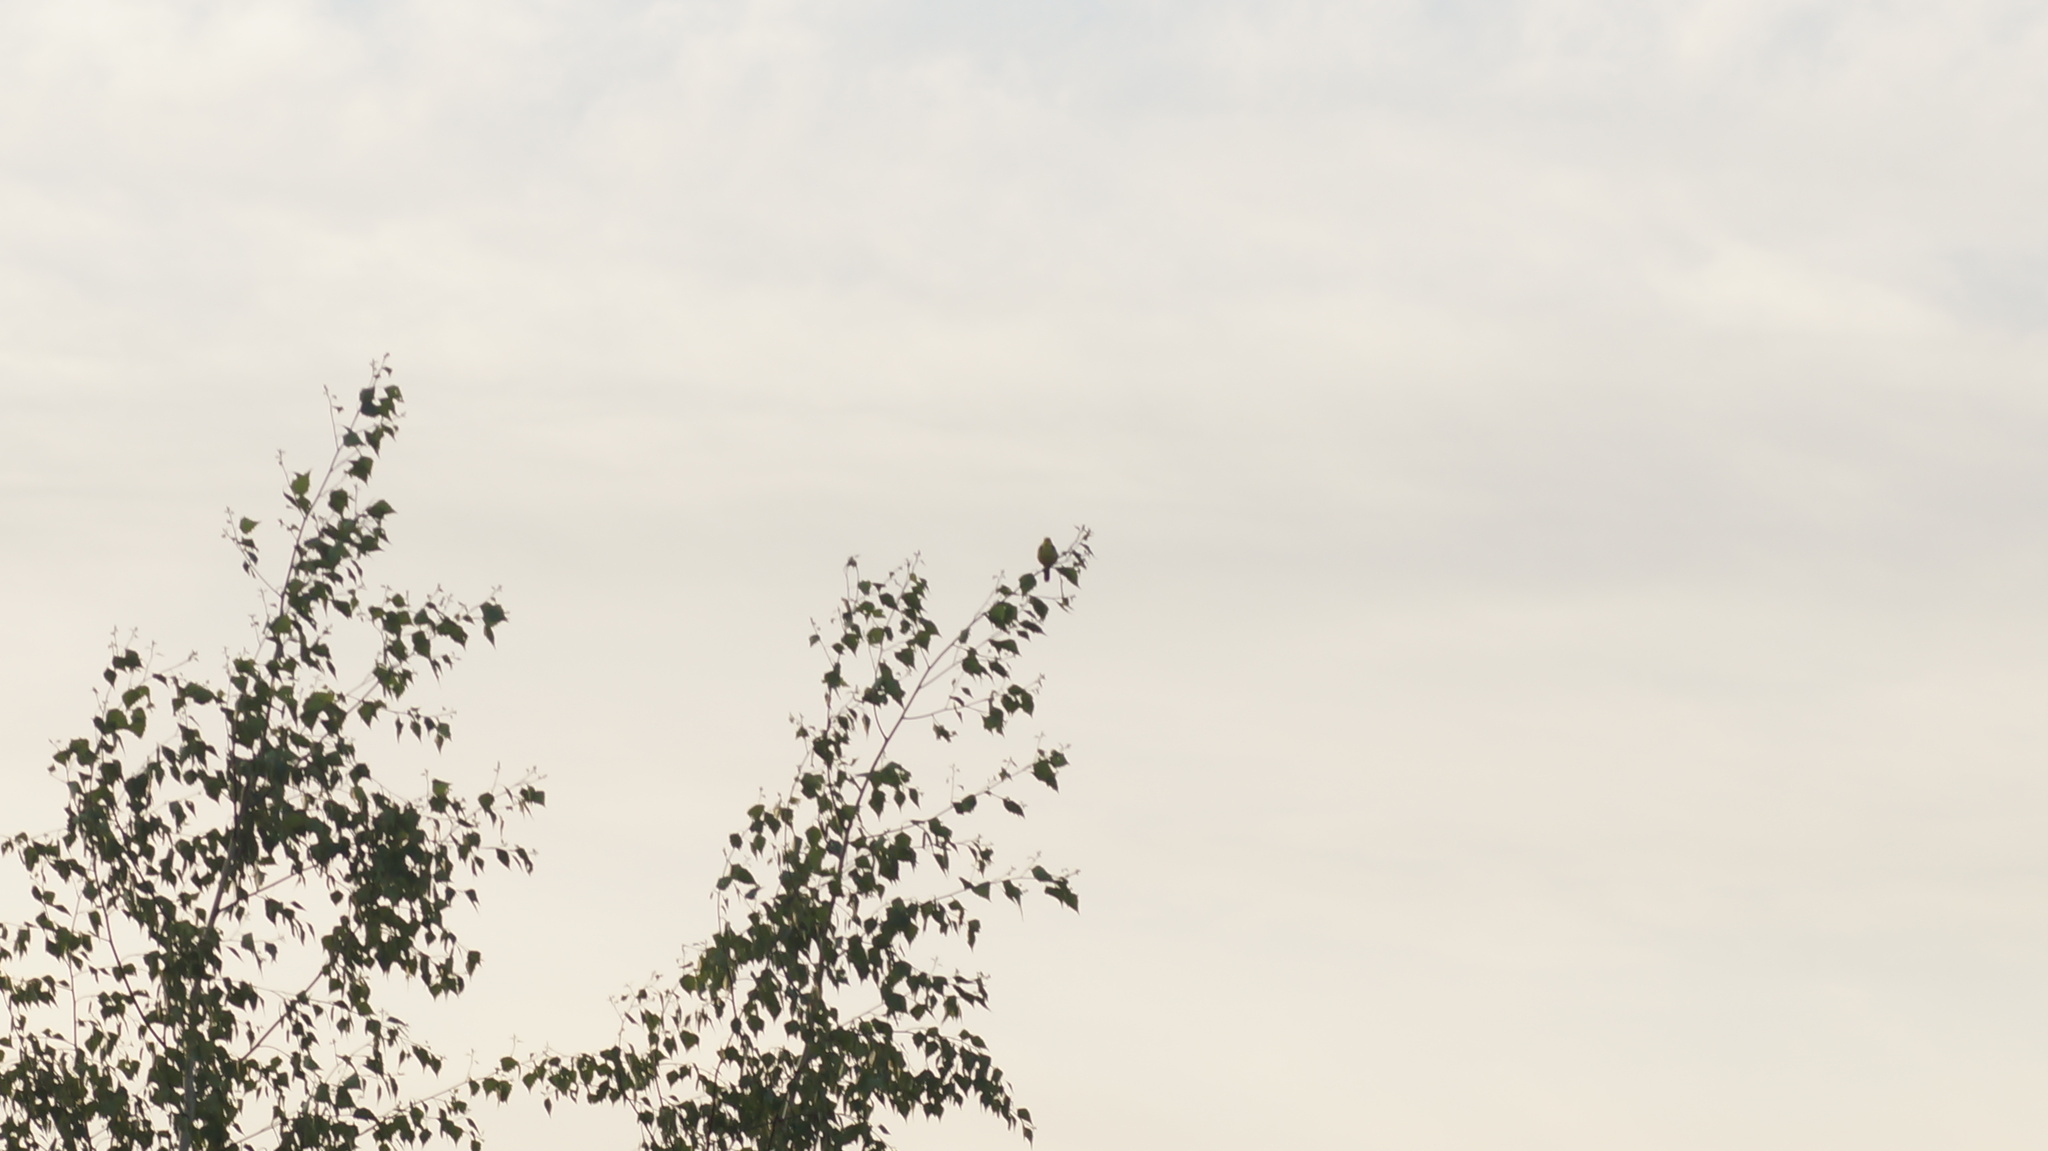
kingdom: Animalia
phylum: Chordata
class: Aves
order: Passeriformes
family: Motacillidae
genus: Motacilla
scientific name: Motacilla citreola
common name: Citrine wagtail
